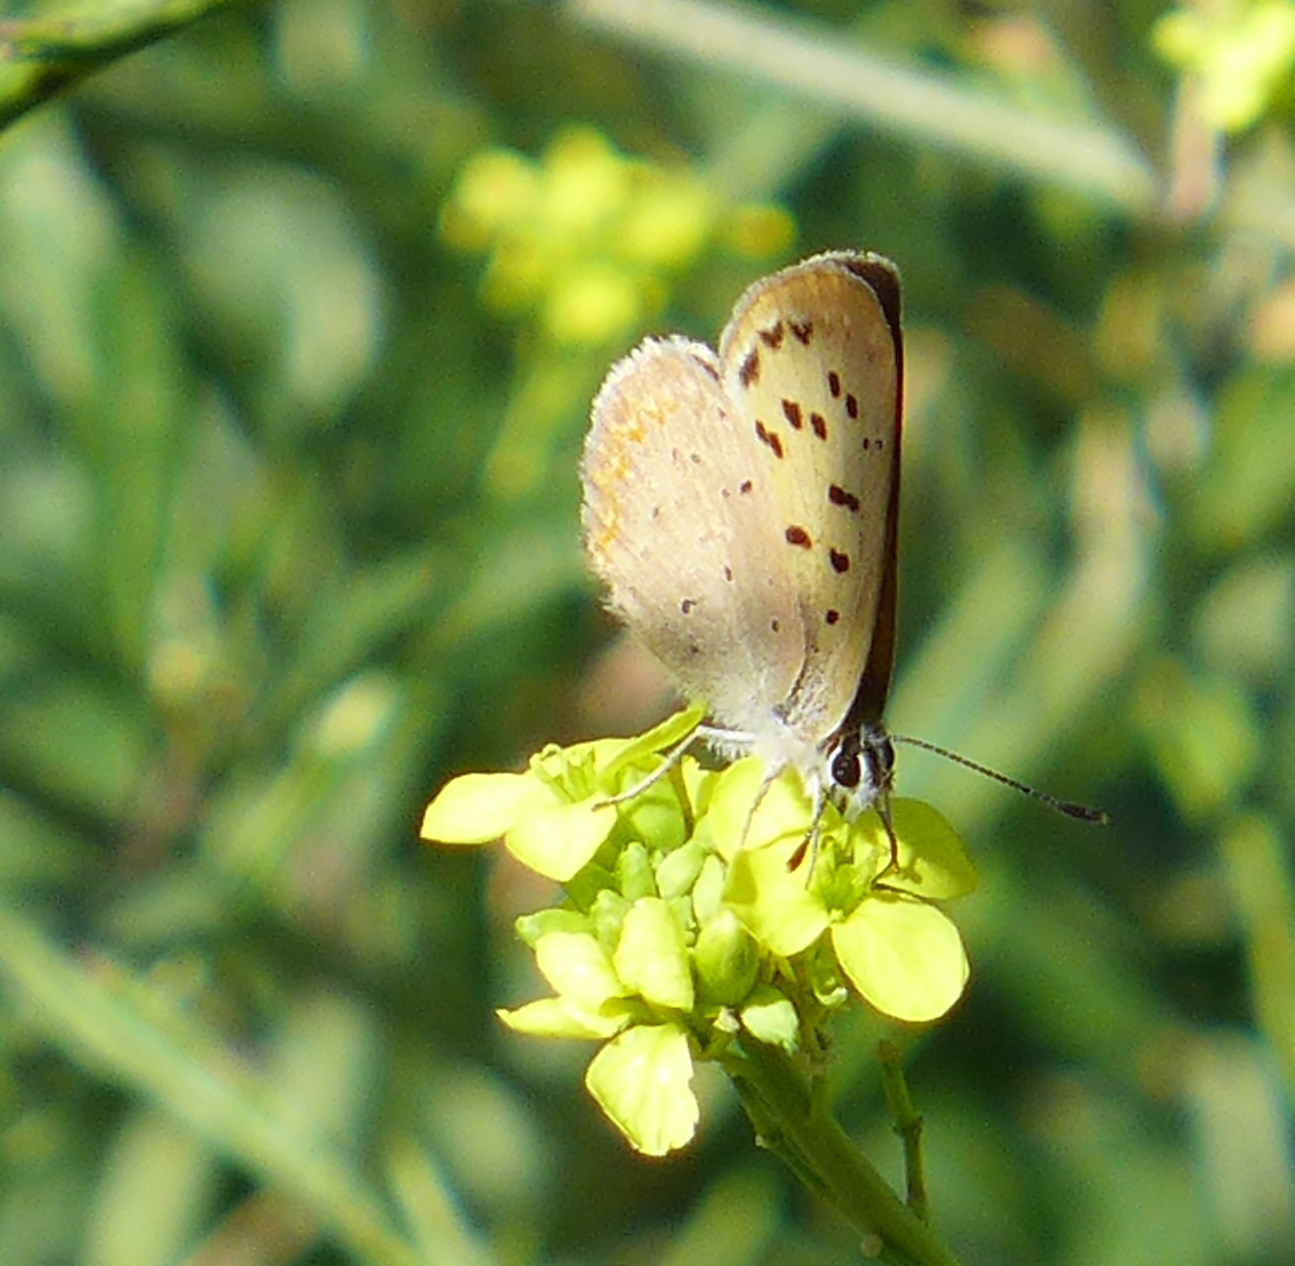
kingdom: Animalia
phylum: Arthropoda
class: Insecta
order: Lepidoptera
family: Lycaenidae
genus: Tharsalea
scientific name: Tharsalea helloides
